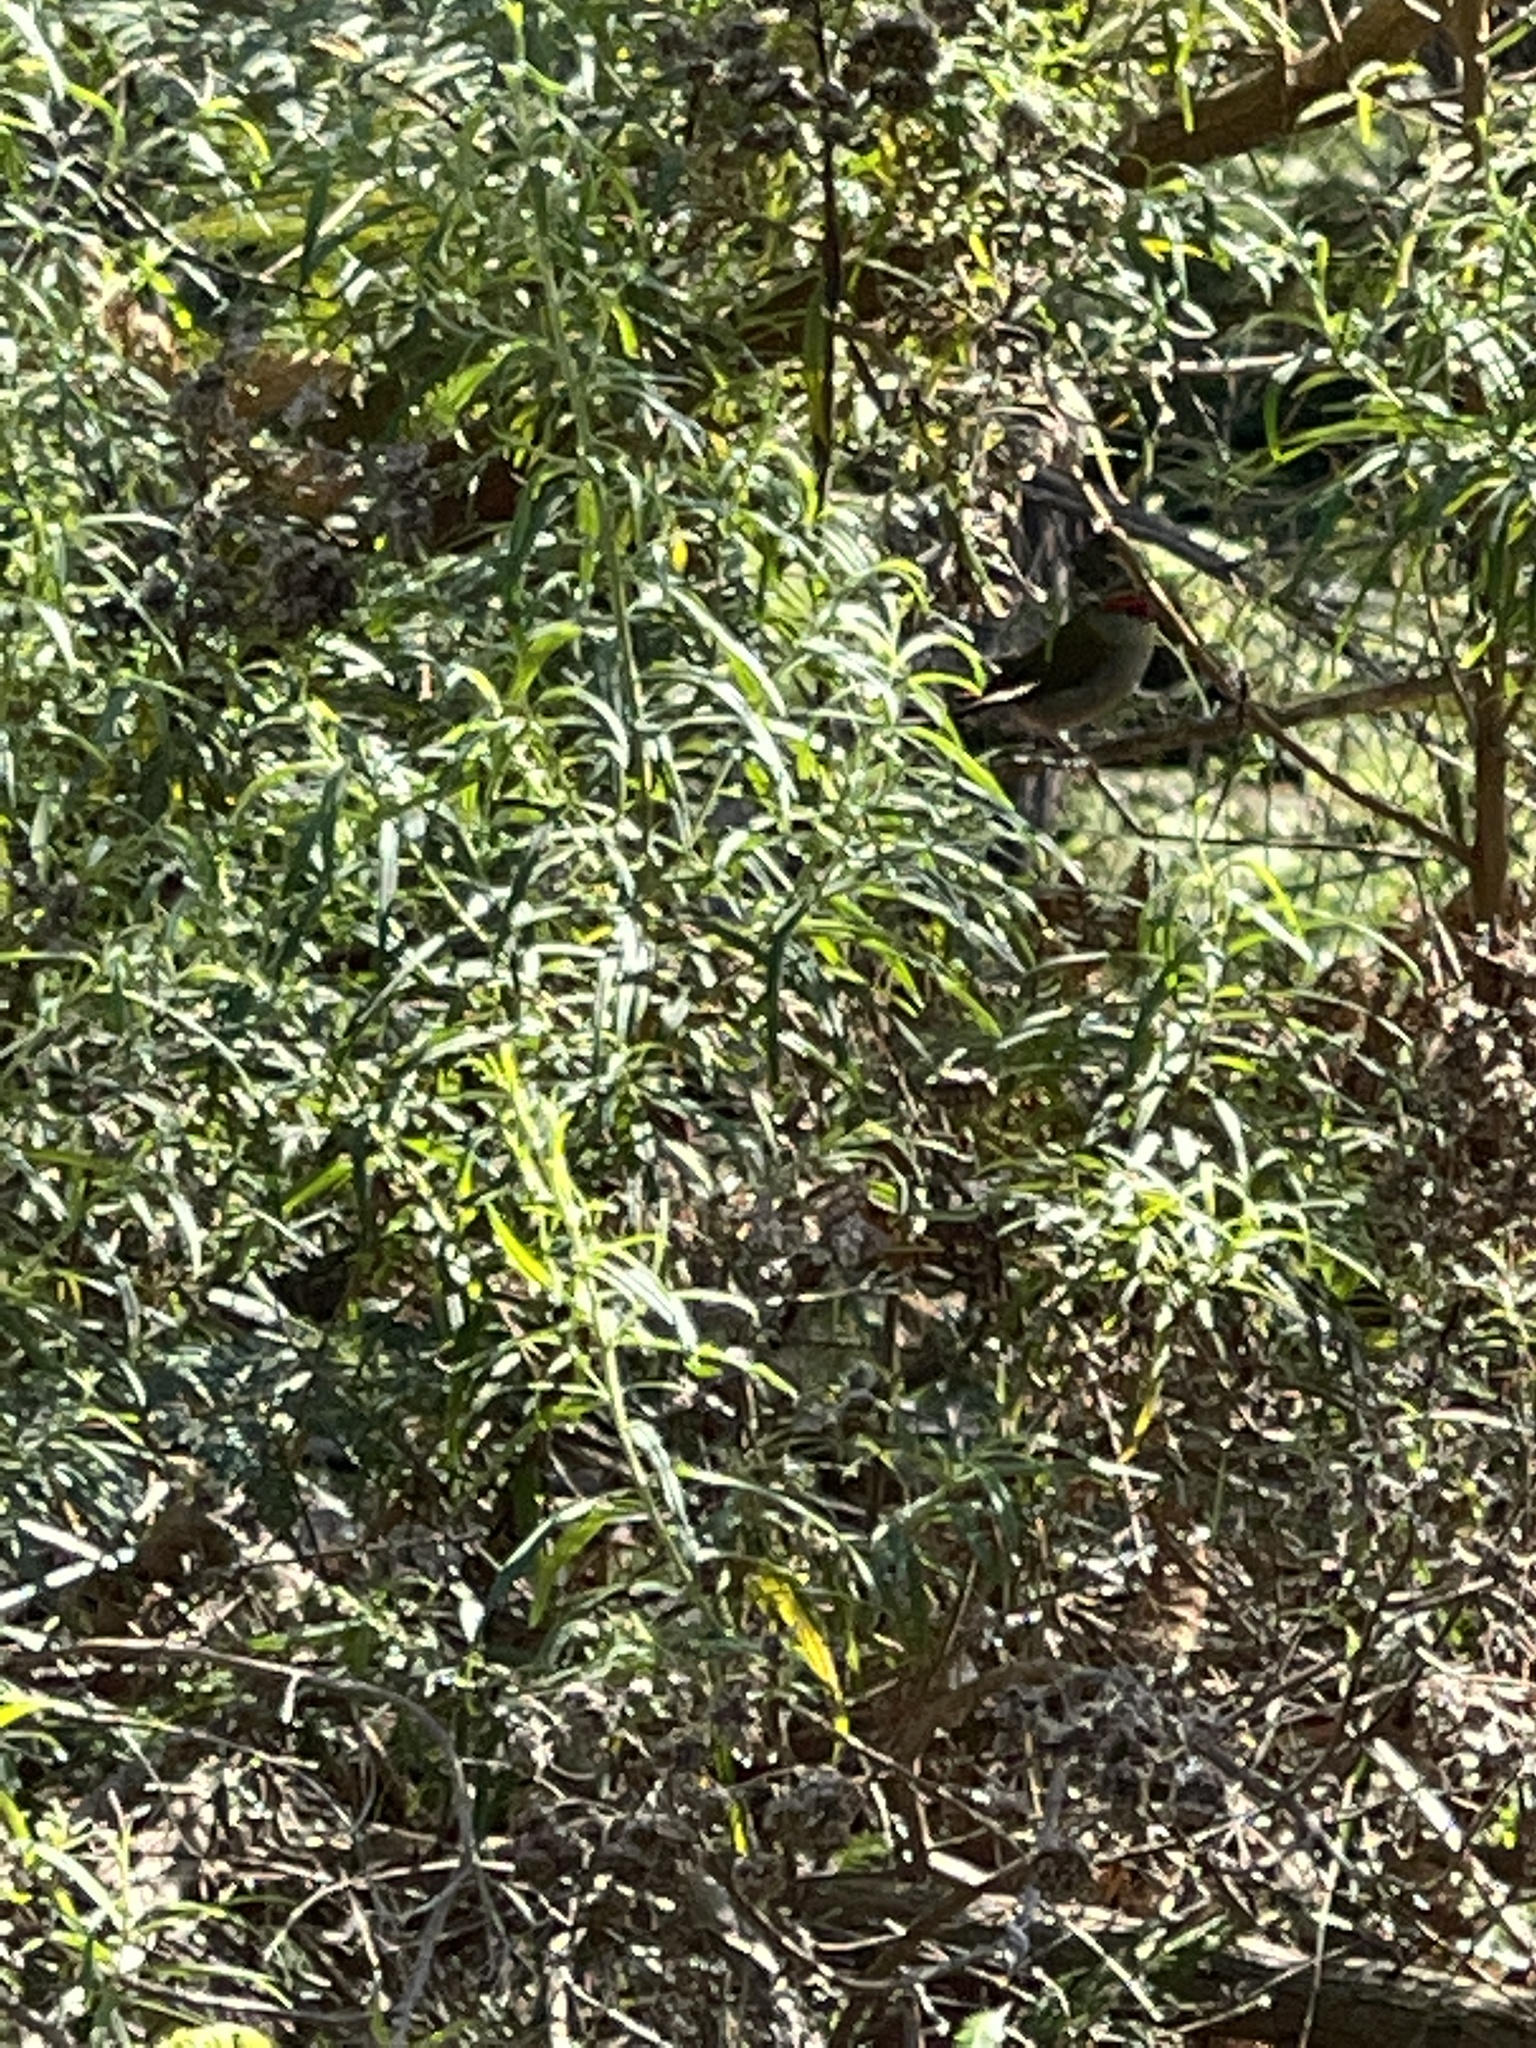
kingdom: Animalia
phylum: Chordata
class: Aves
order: Passeriformes
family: Estrildidae
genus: Neochmia
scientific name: Neochmia temporalis
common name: Red-browed finch
